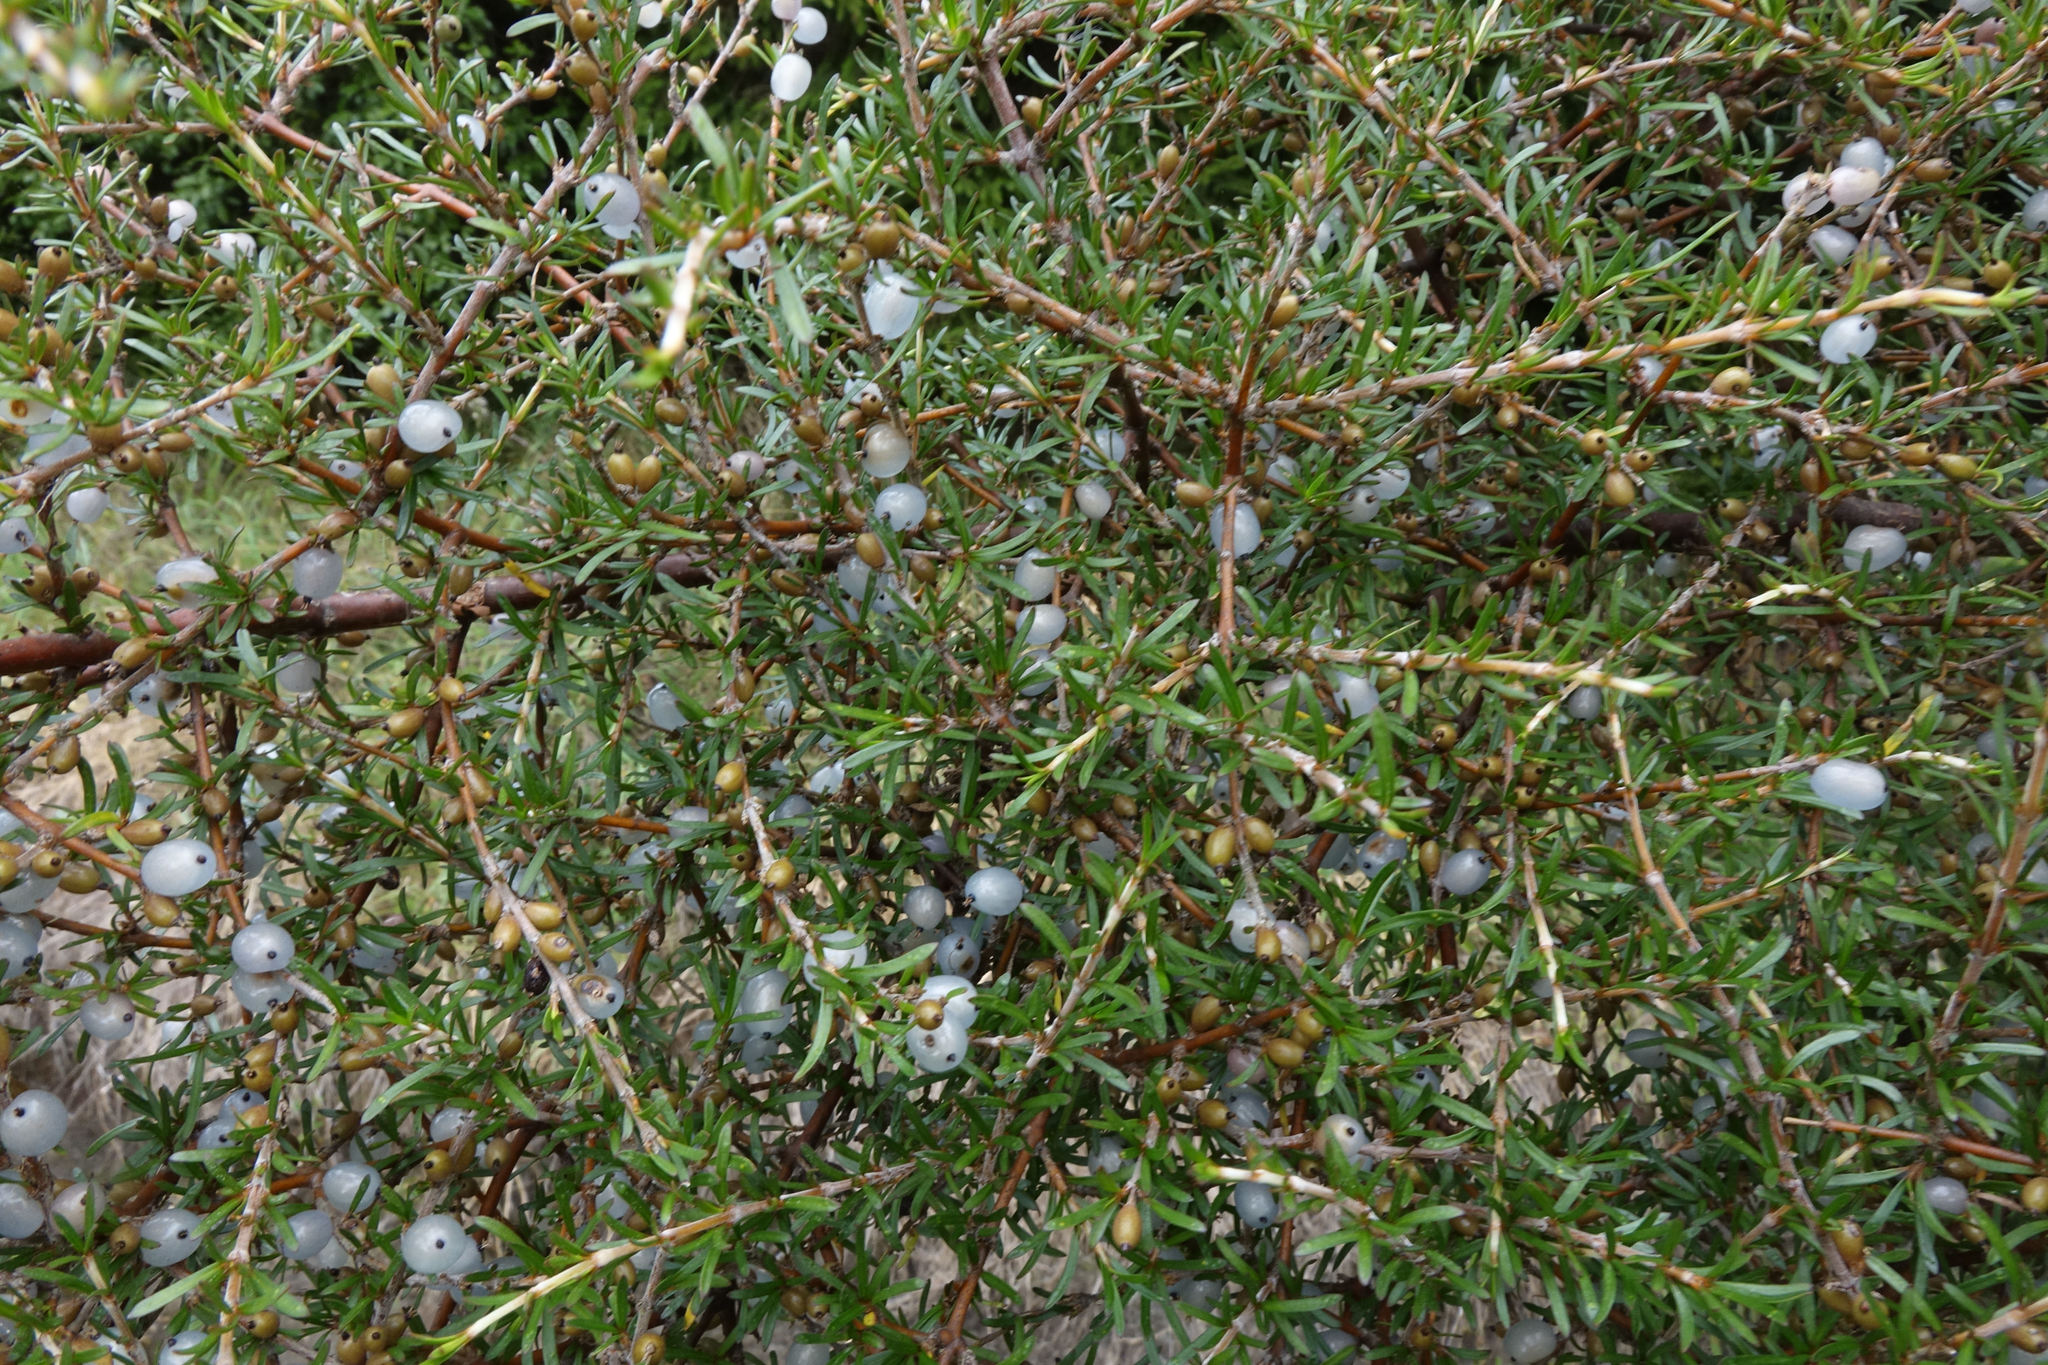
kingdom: Plantae
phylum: Tracheophyta
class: Magnoliopsida
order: Gentianales
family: Rubiaceae
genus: Coprosma
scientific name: Coprosma rugosa
